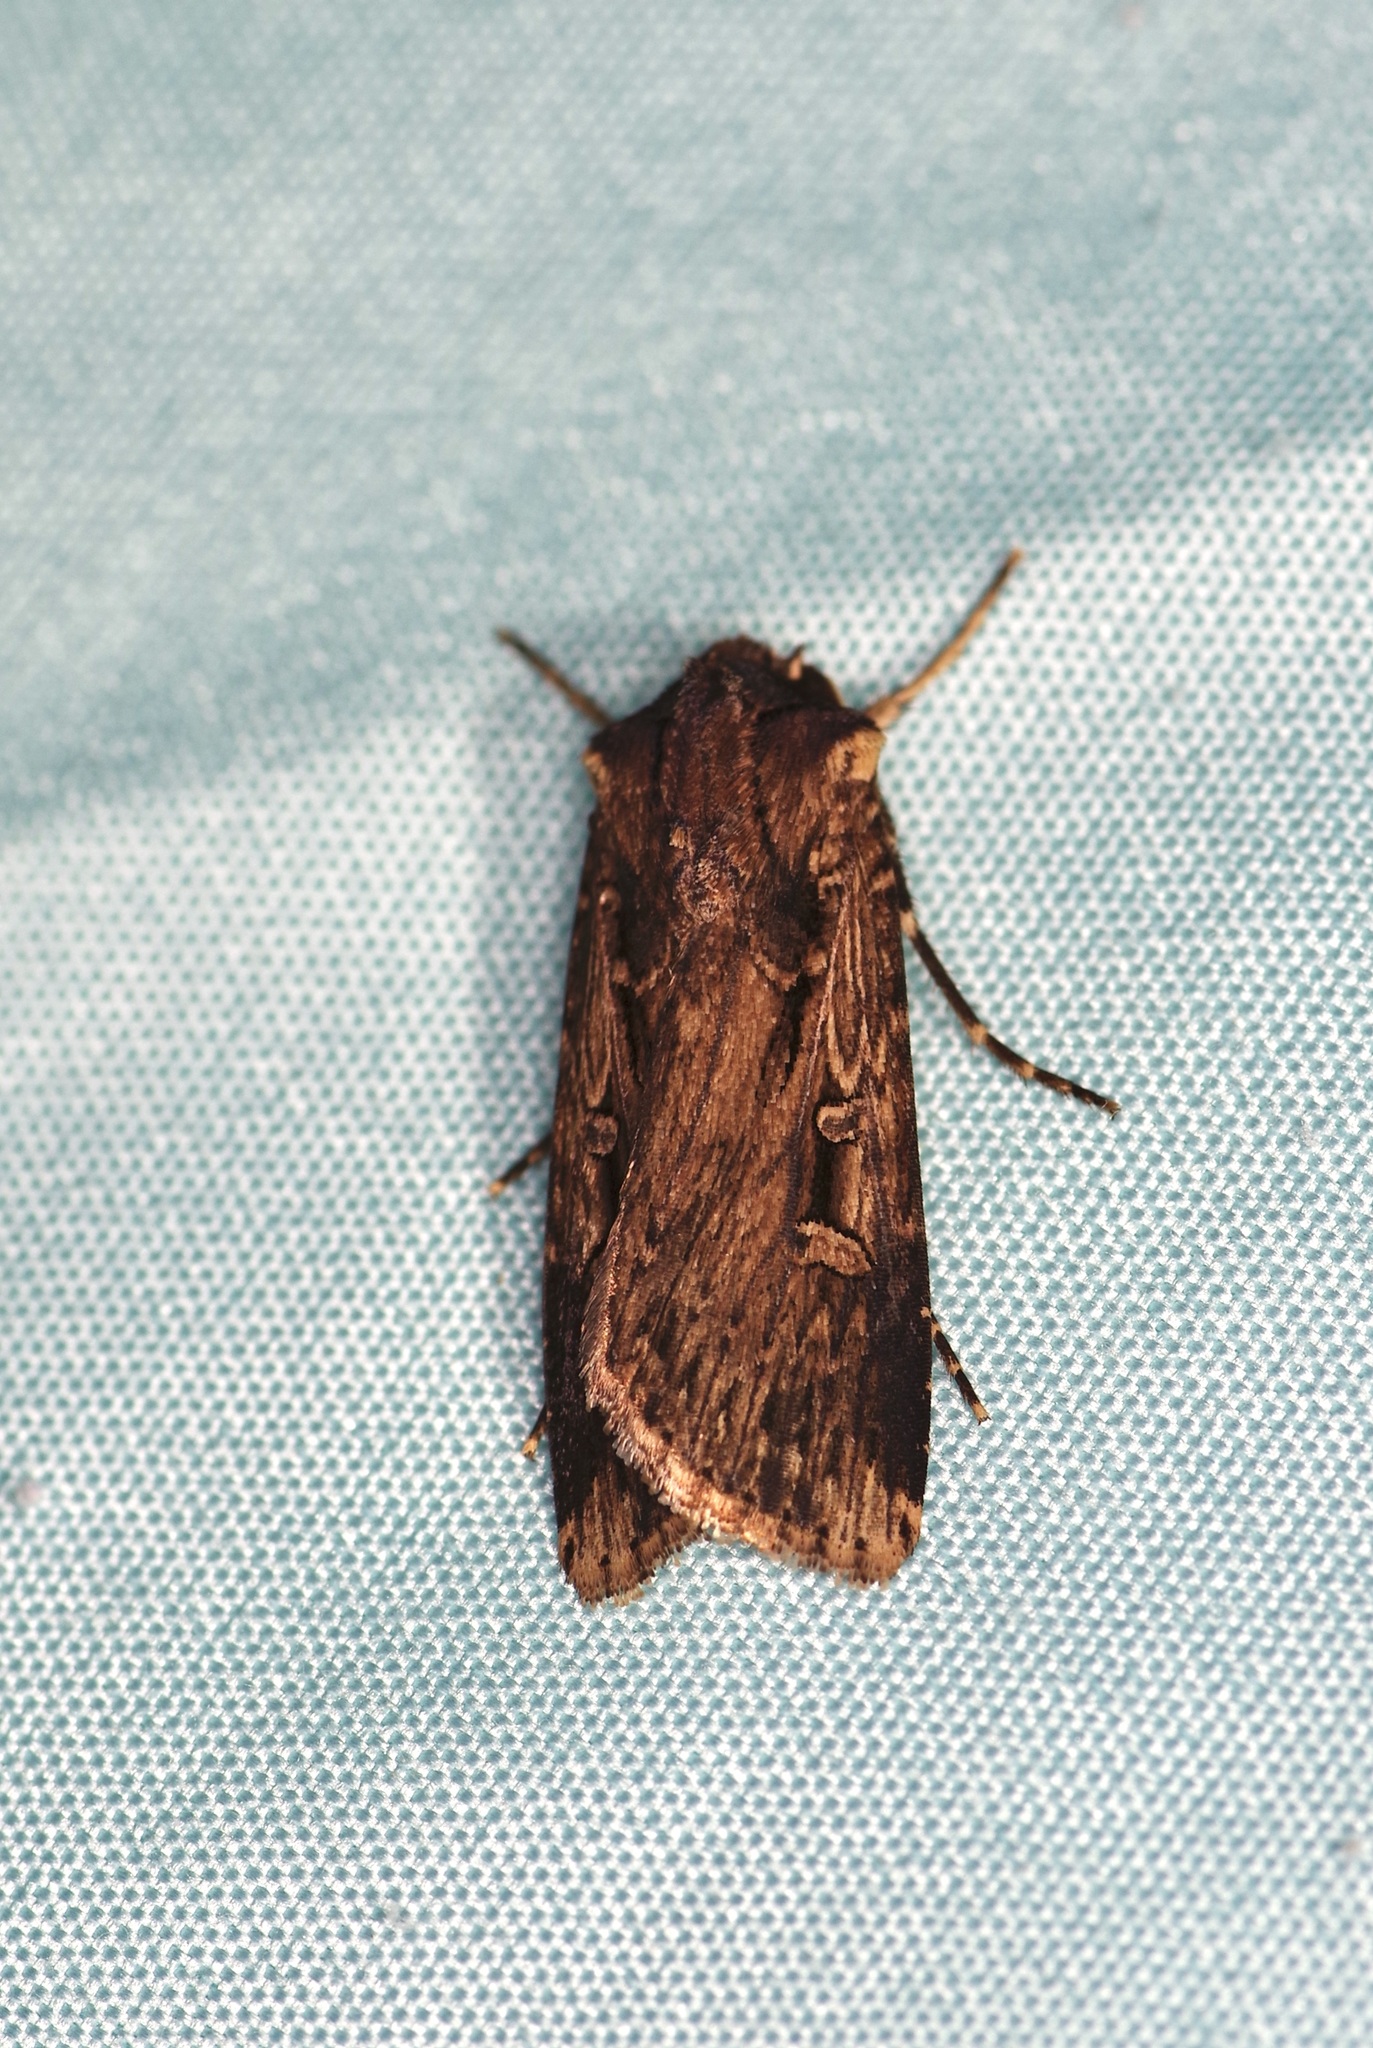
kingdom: Animalia
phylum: Arthropoda
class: Insecta
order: Lepidoptera
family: Noctuidae
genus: Feltia
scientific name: Feltia subterranea
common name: Granulate cutworm
